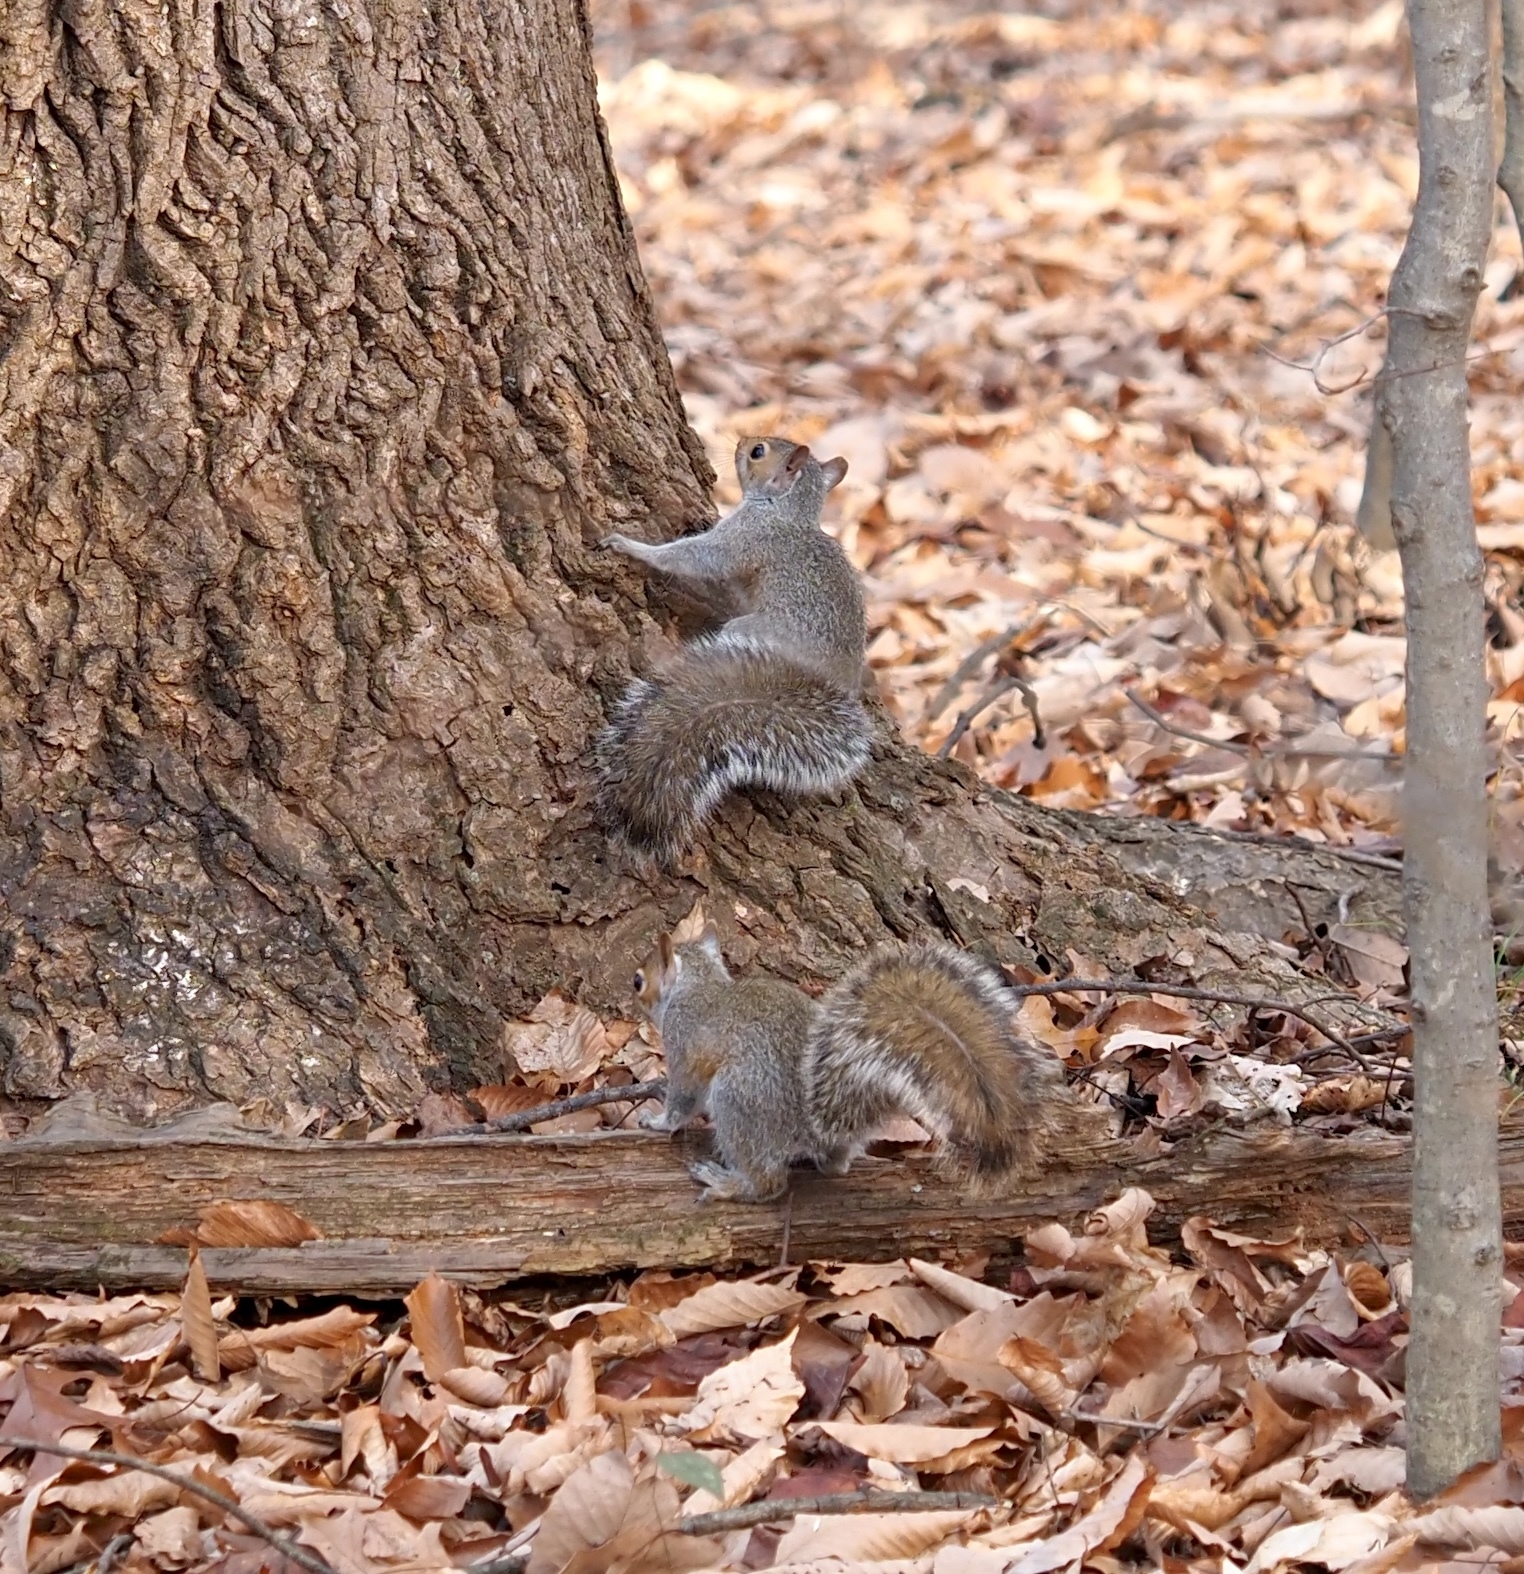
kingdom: Animalia
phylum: Chordata
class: Mammalia
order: Rodentia
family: Sciuridae
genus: Sciurus
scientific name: Sciurus carolinensis
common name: Eastern gray squirrel
